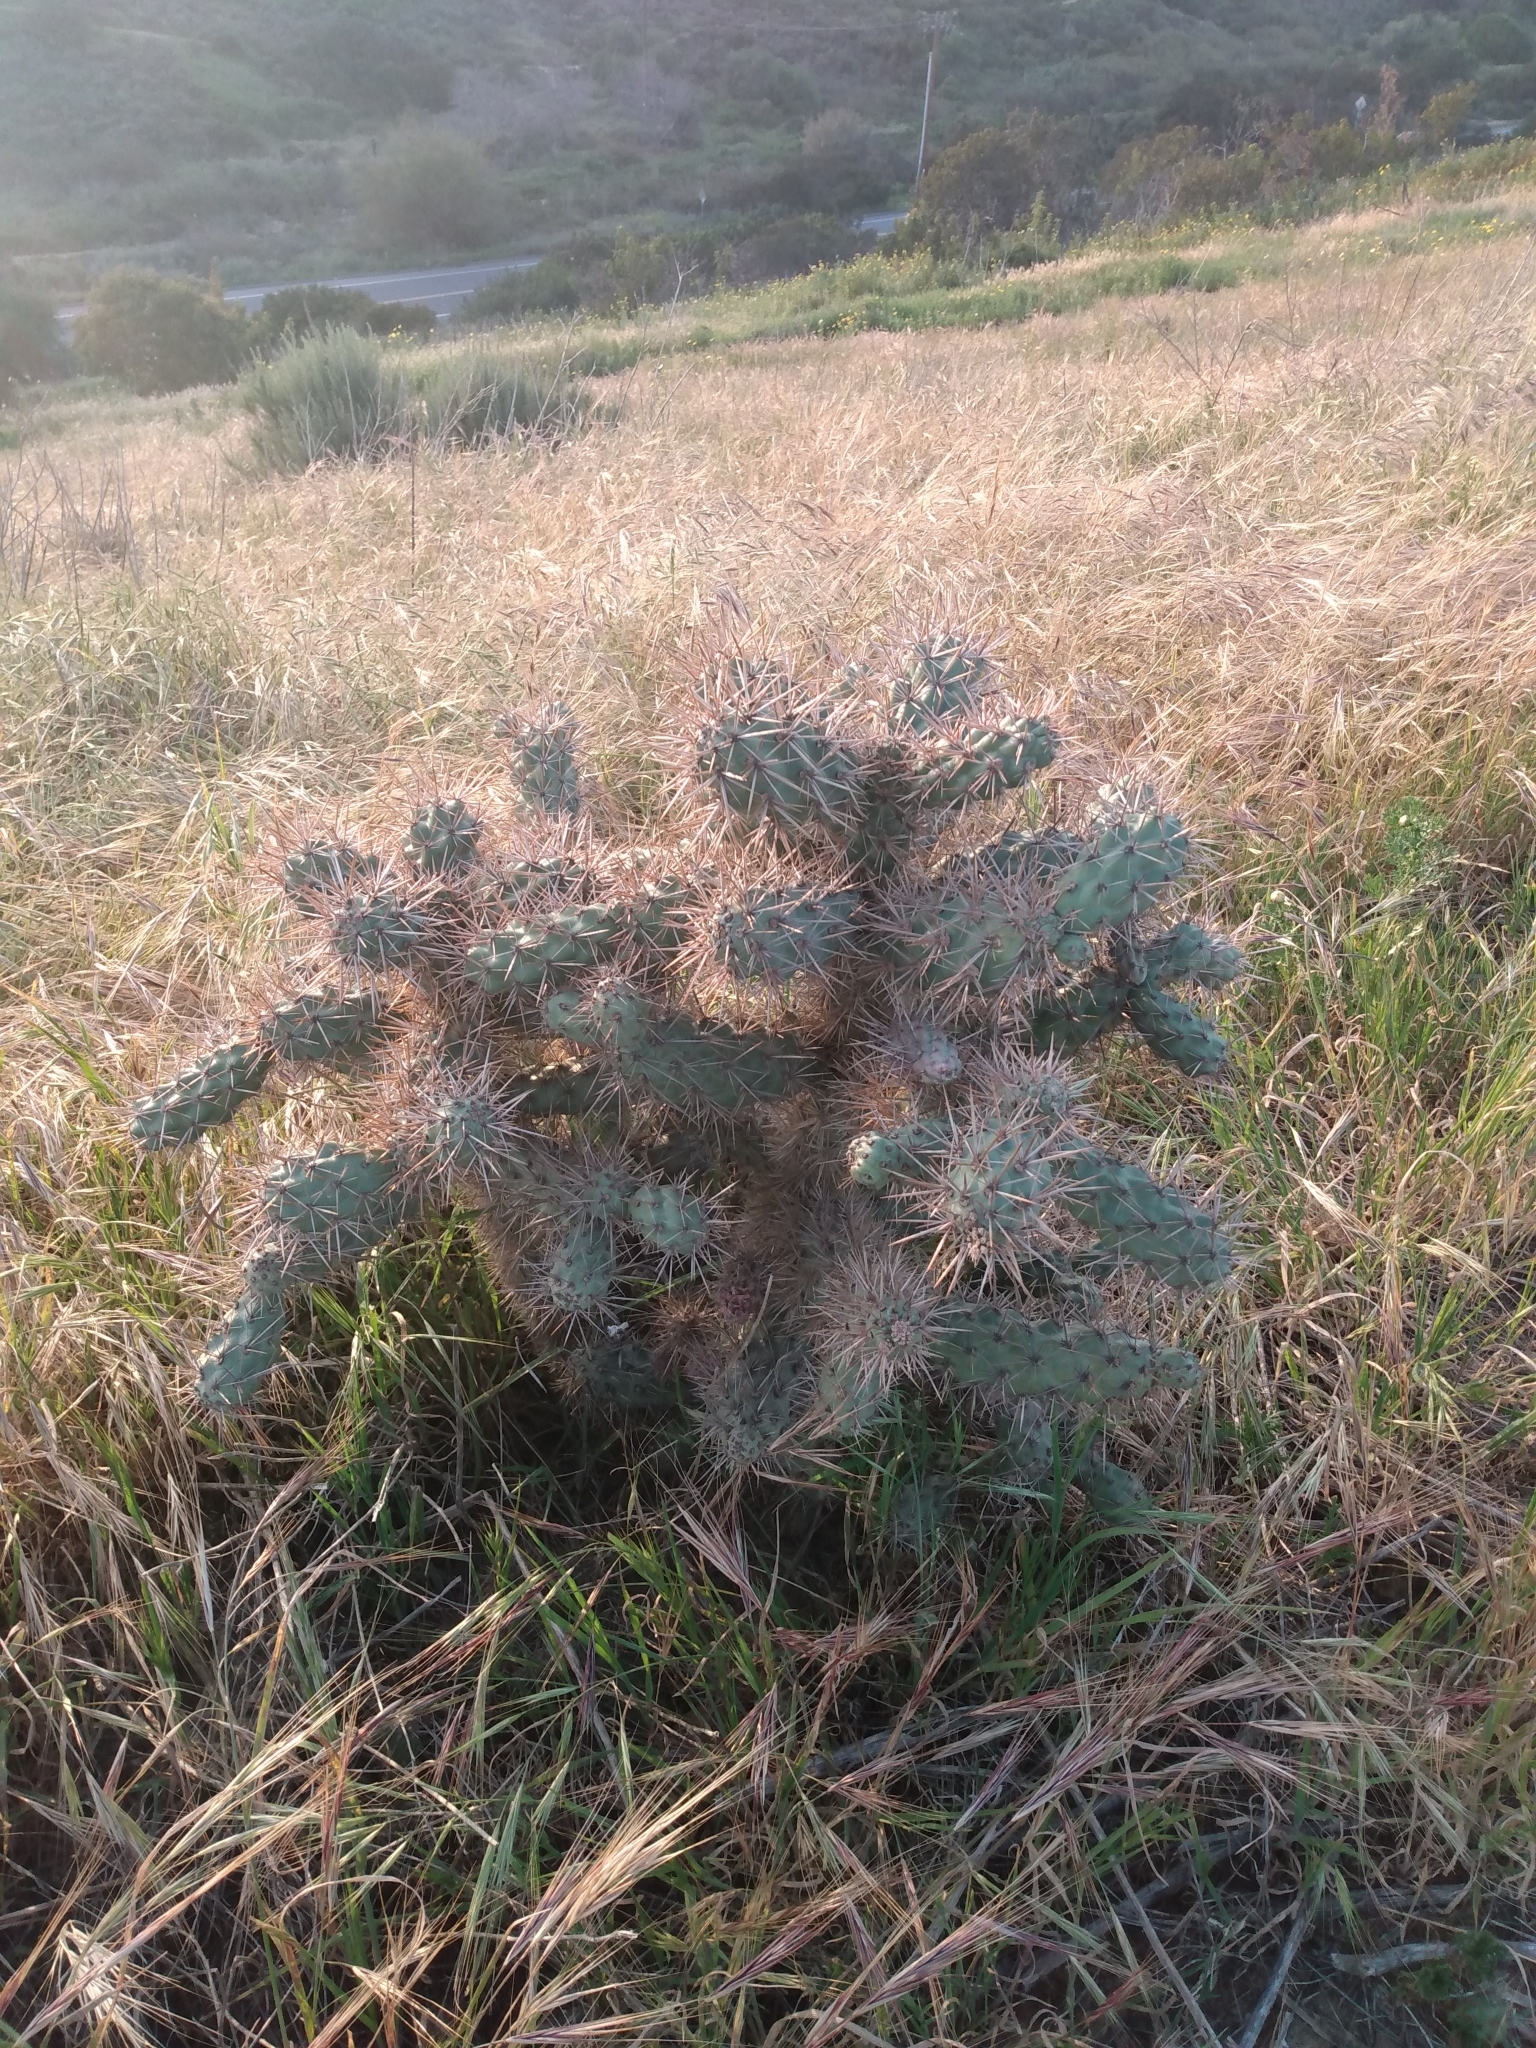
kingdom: Plantae
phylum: Tracheophyta
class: Magnoliopsida
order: Caryophyllales
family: Cactaceae
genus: Cylindropuntia
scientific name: Cylindropuntia prolifera
